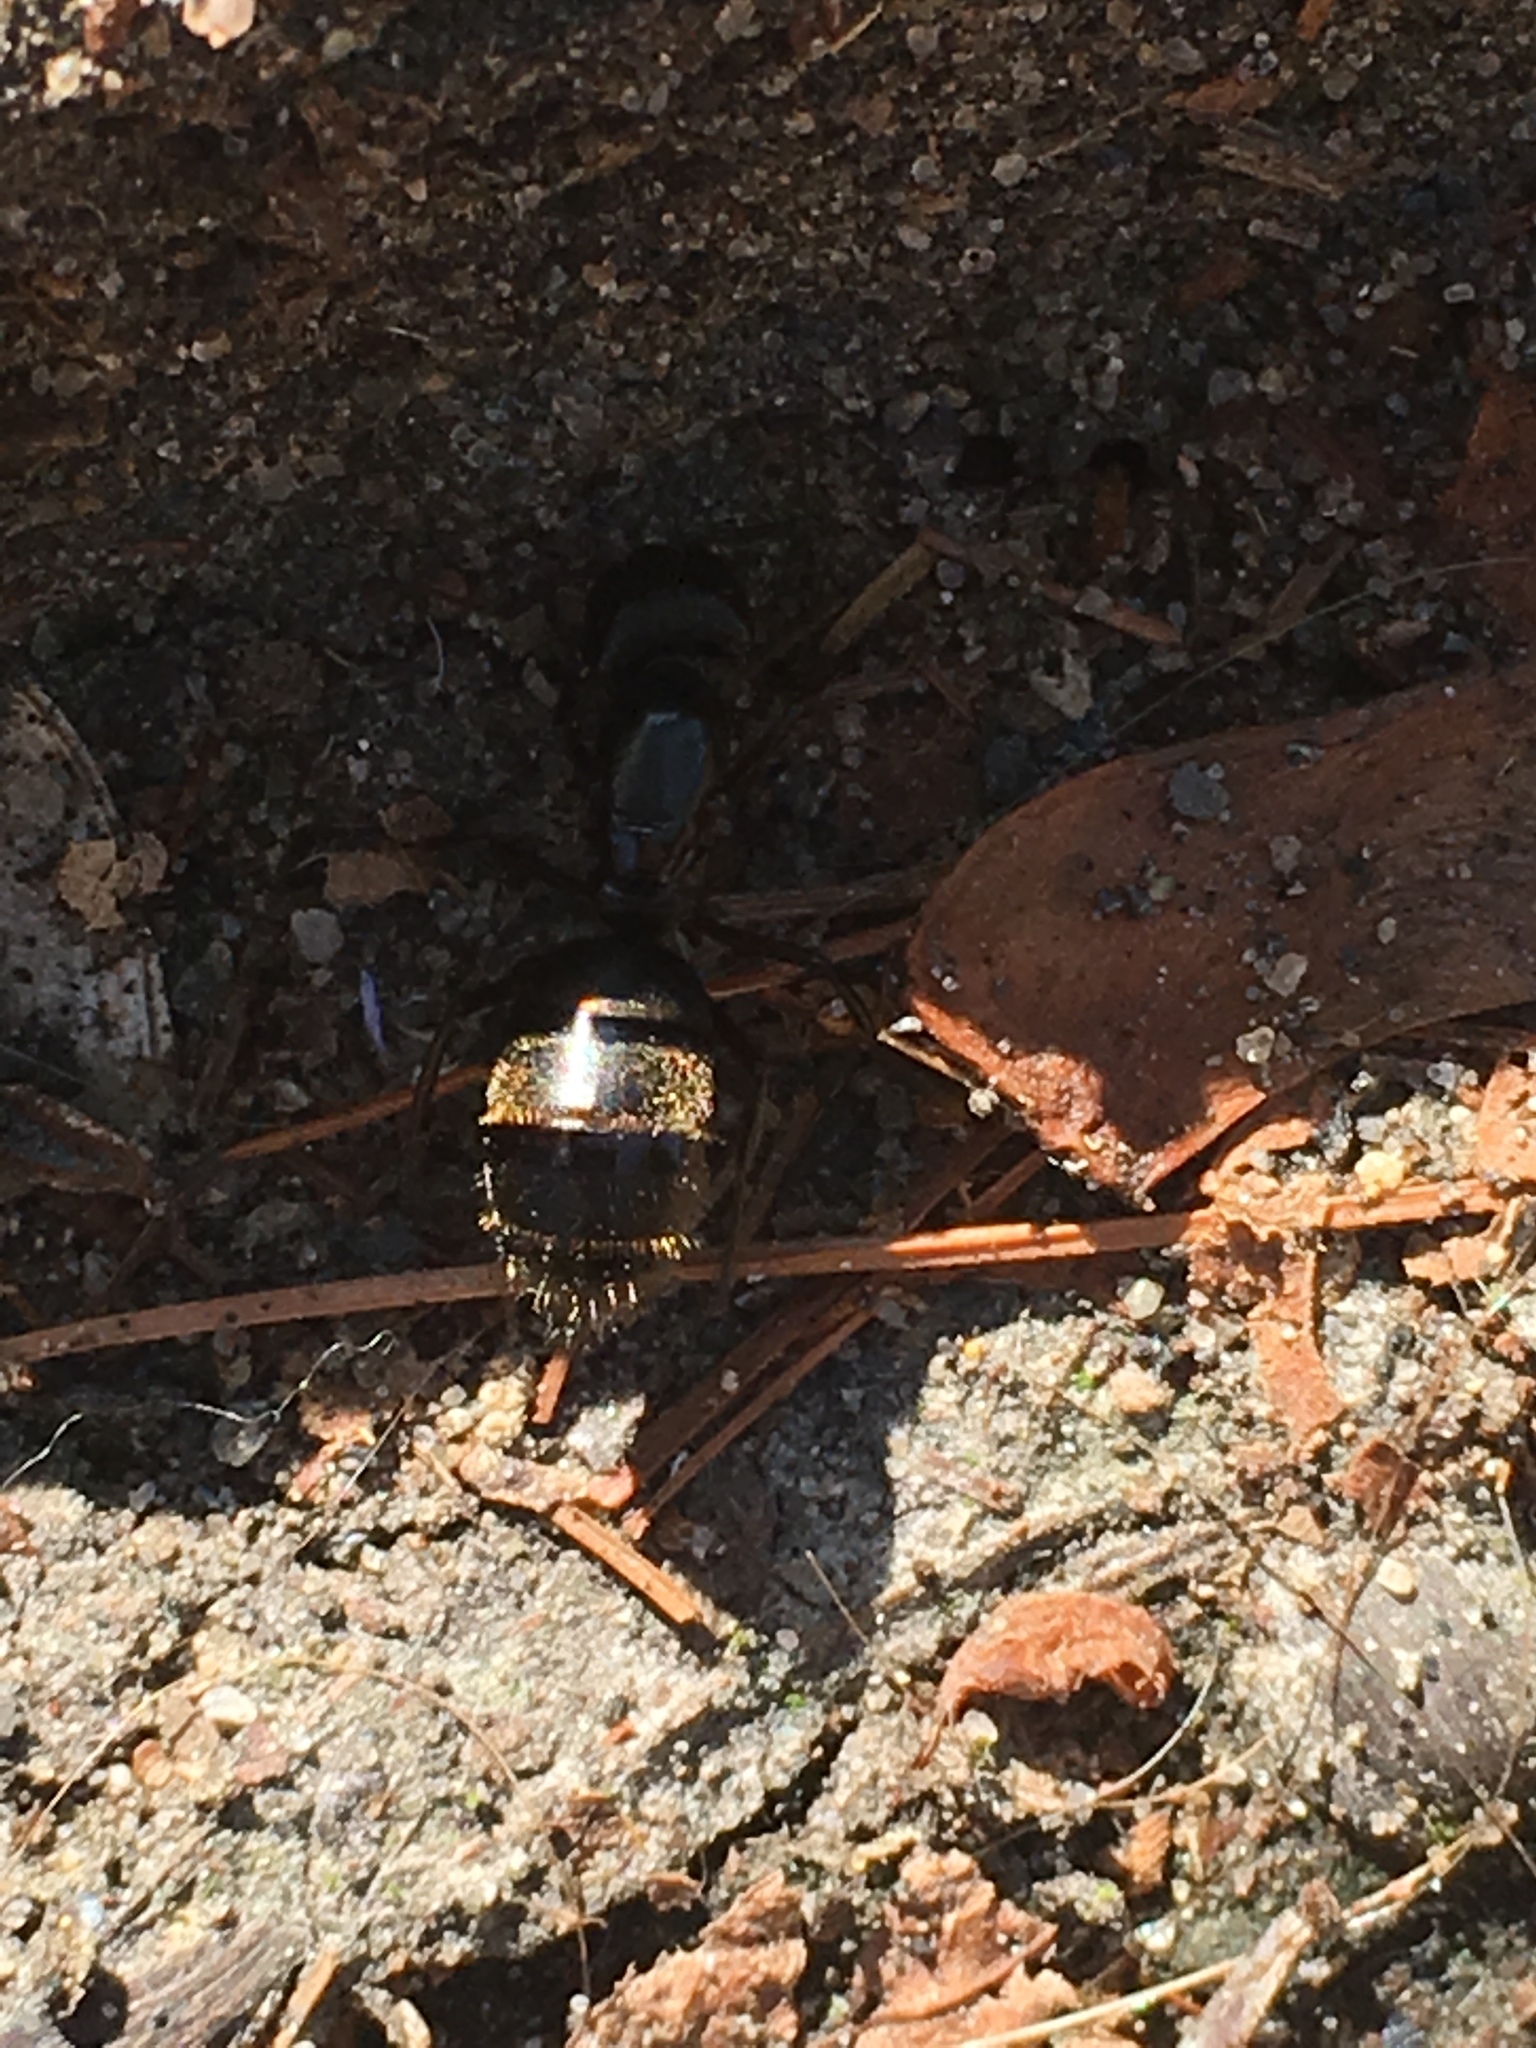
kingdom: Animalia
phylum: Arthropoda
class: Insecta
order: Hymenoptera
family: Formicidae
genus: Camponotus
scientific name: Camponotus pennsylvanicus
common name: Black carpenter ant
